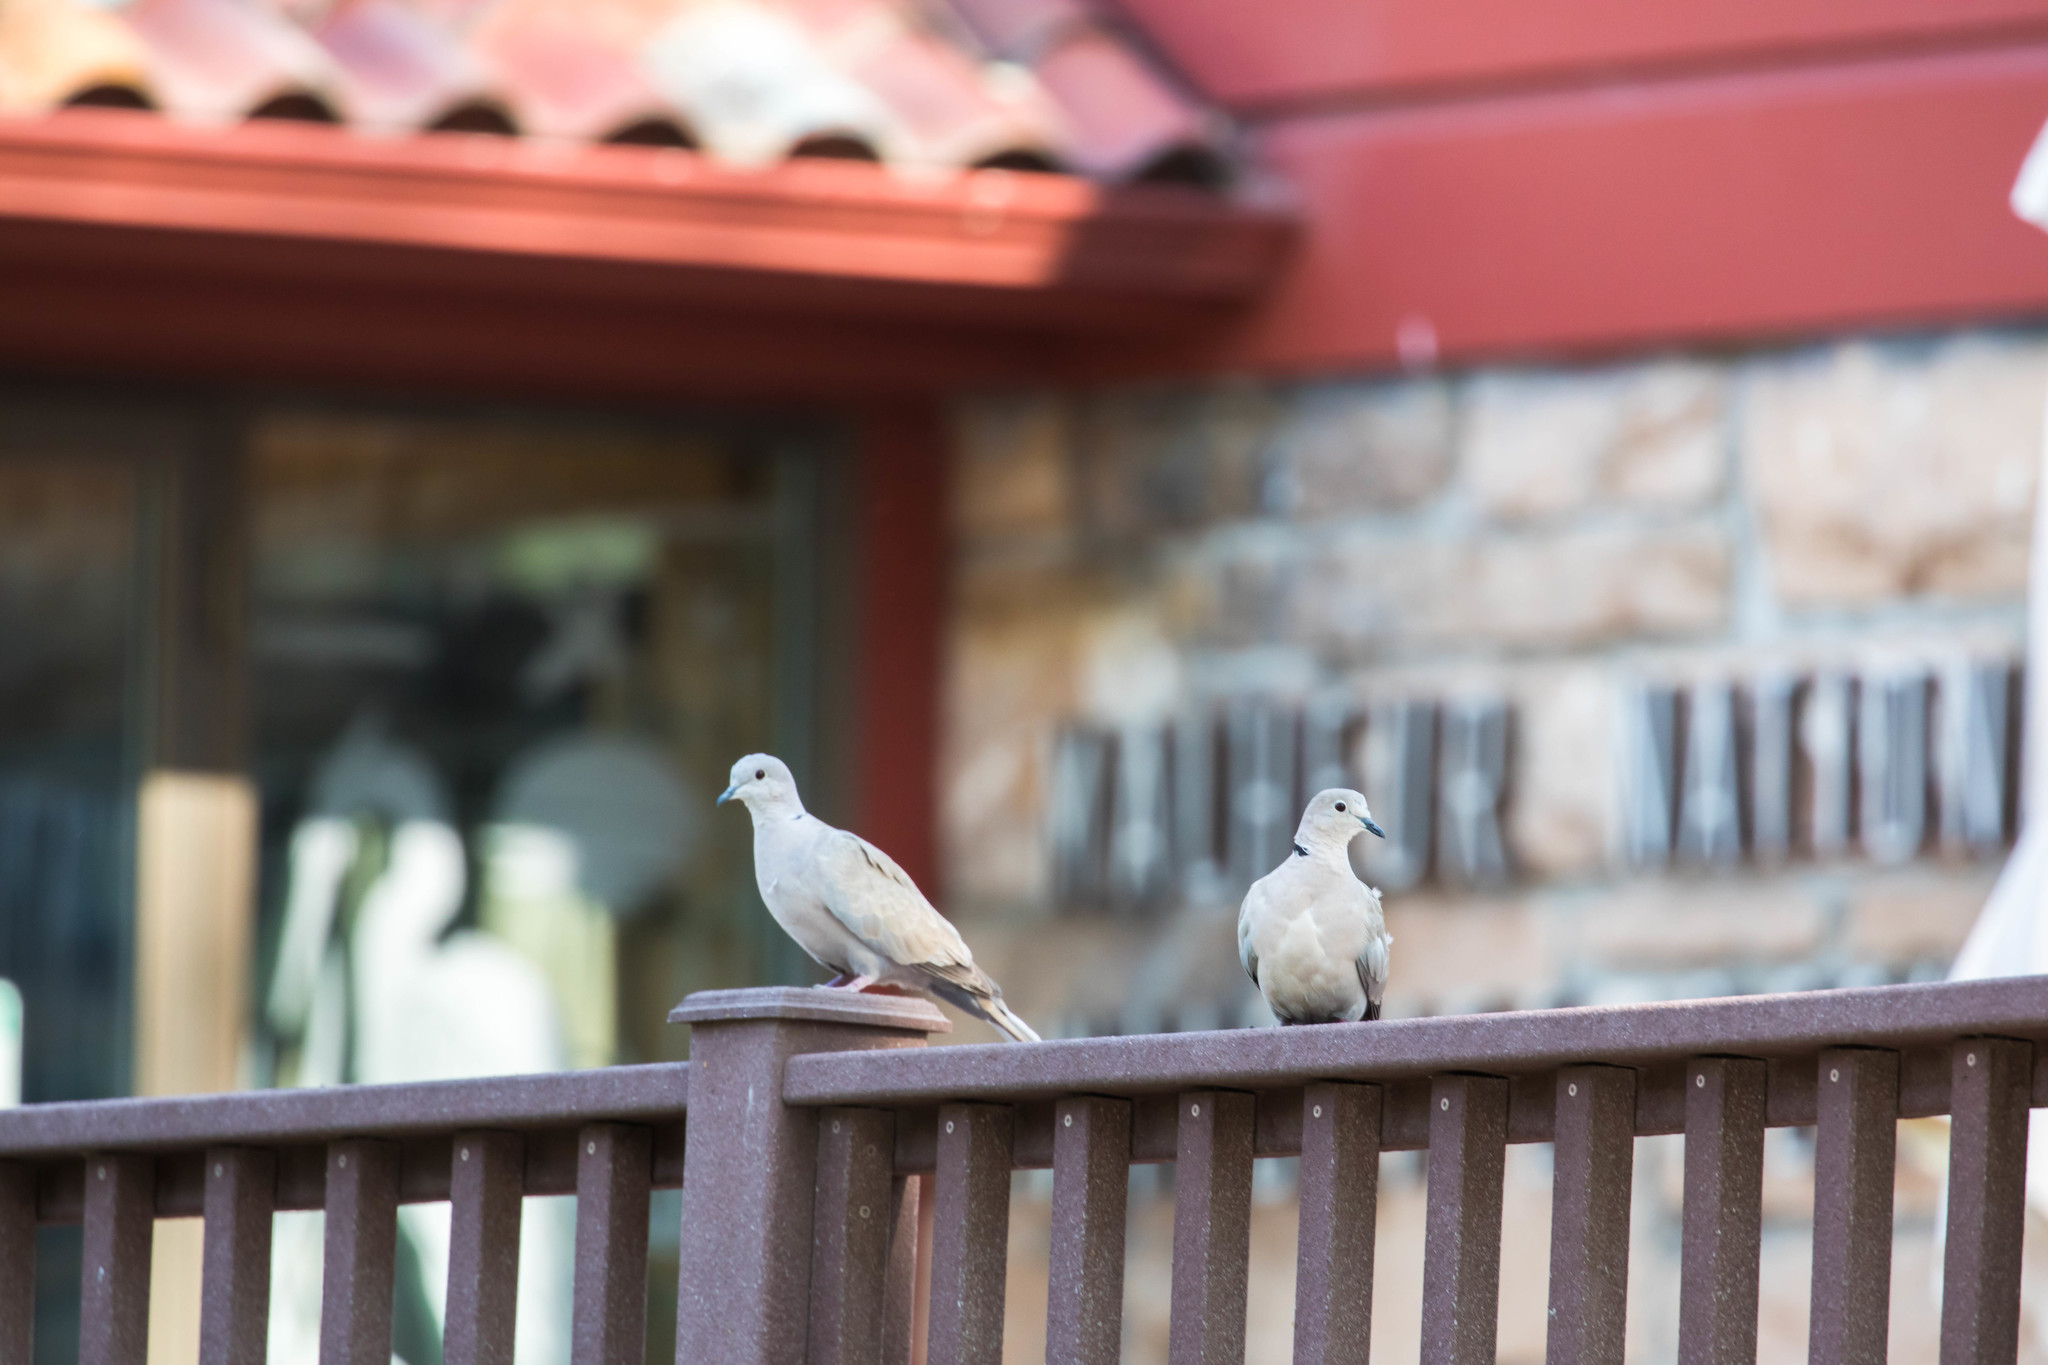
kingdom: Animalia
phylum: Chordata
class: Aves
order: Columbiformes
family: Columbidae
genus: Streptopelia
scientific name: Streptopelia decaocto
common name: Eurasian collared dove
